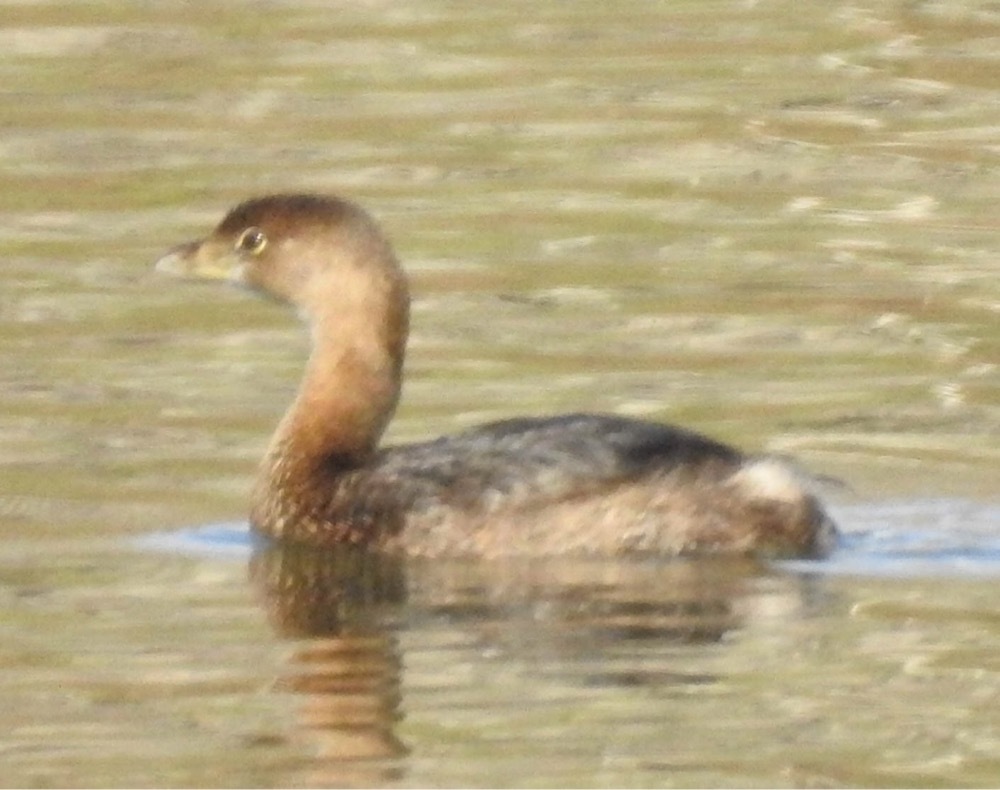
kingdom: Animalia
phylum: Chordata
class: Aves
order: Podicipediformes
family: Podicipedidae
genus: Podilymbus
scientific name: Podilymbus podiceps
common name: Pied-billed grebe
